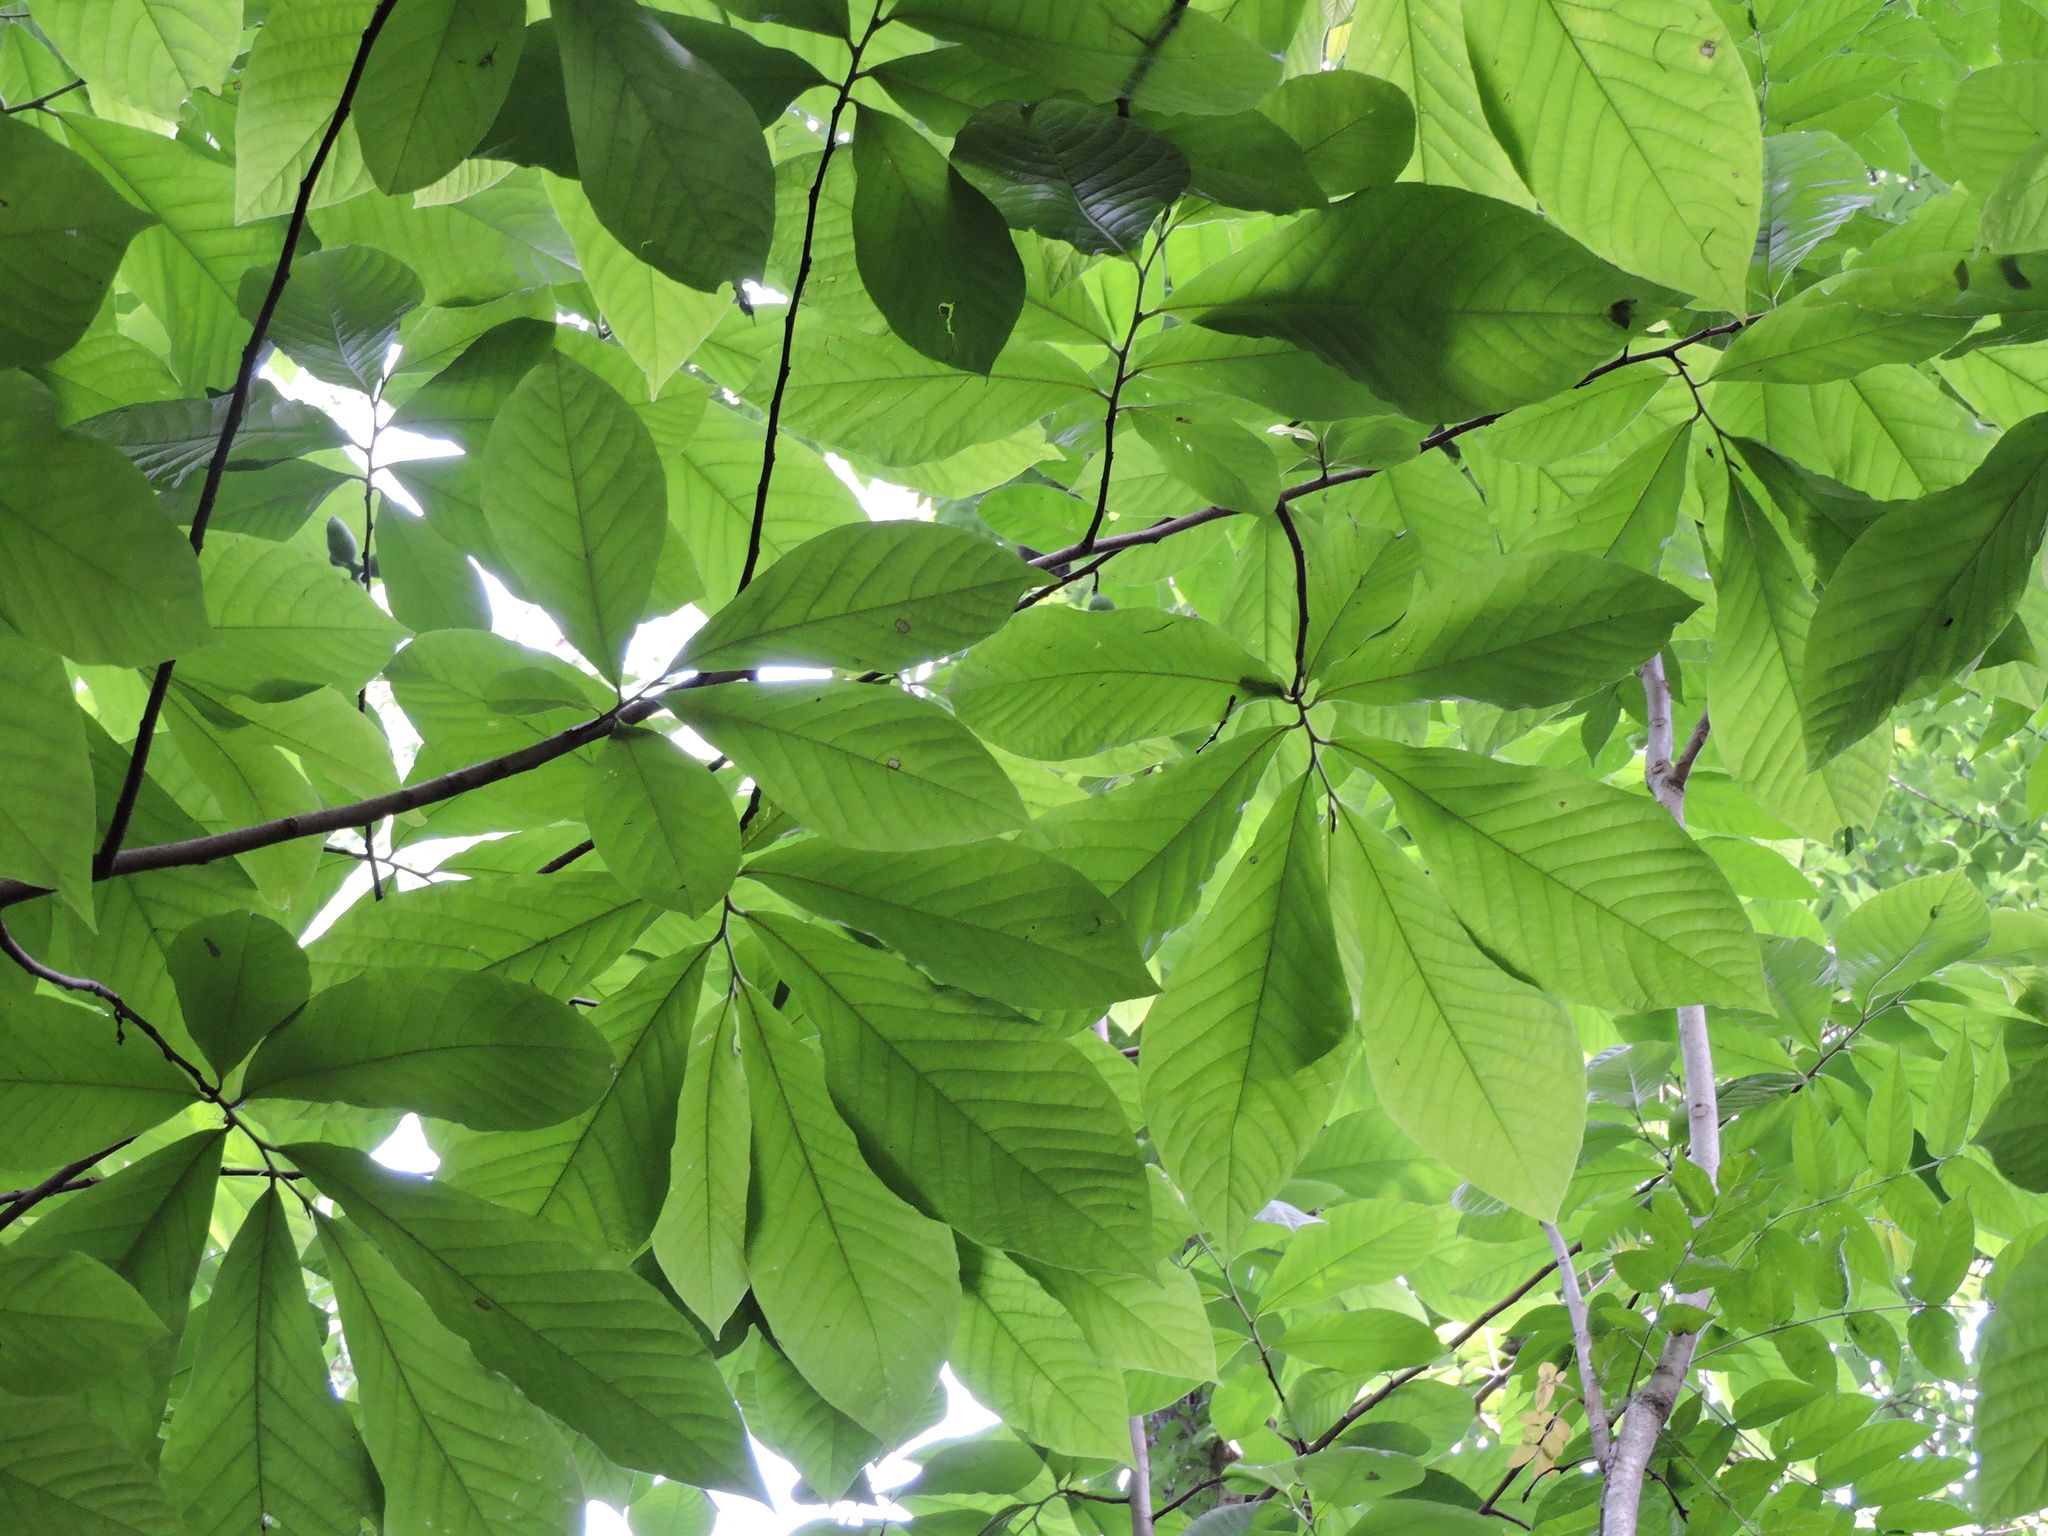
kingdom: Plantae
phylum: Tracheophyta
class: Magnoliopsida
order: Magnoliales
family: Annonaceae
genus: Asimina
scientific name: Asimina triloba
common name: Dog-banana
